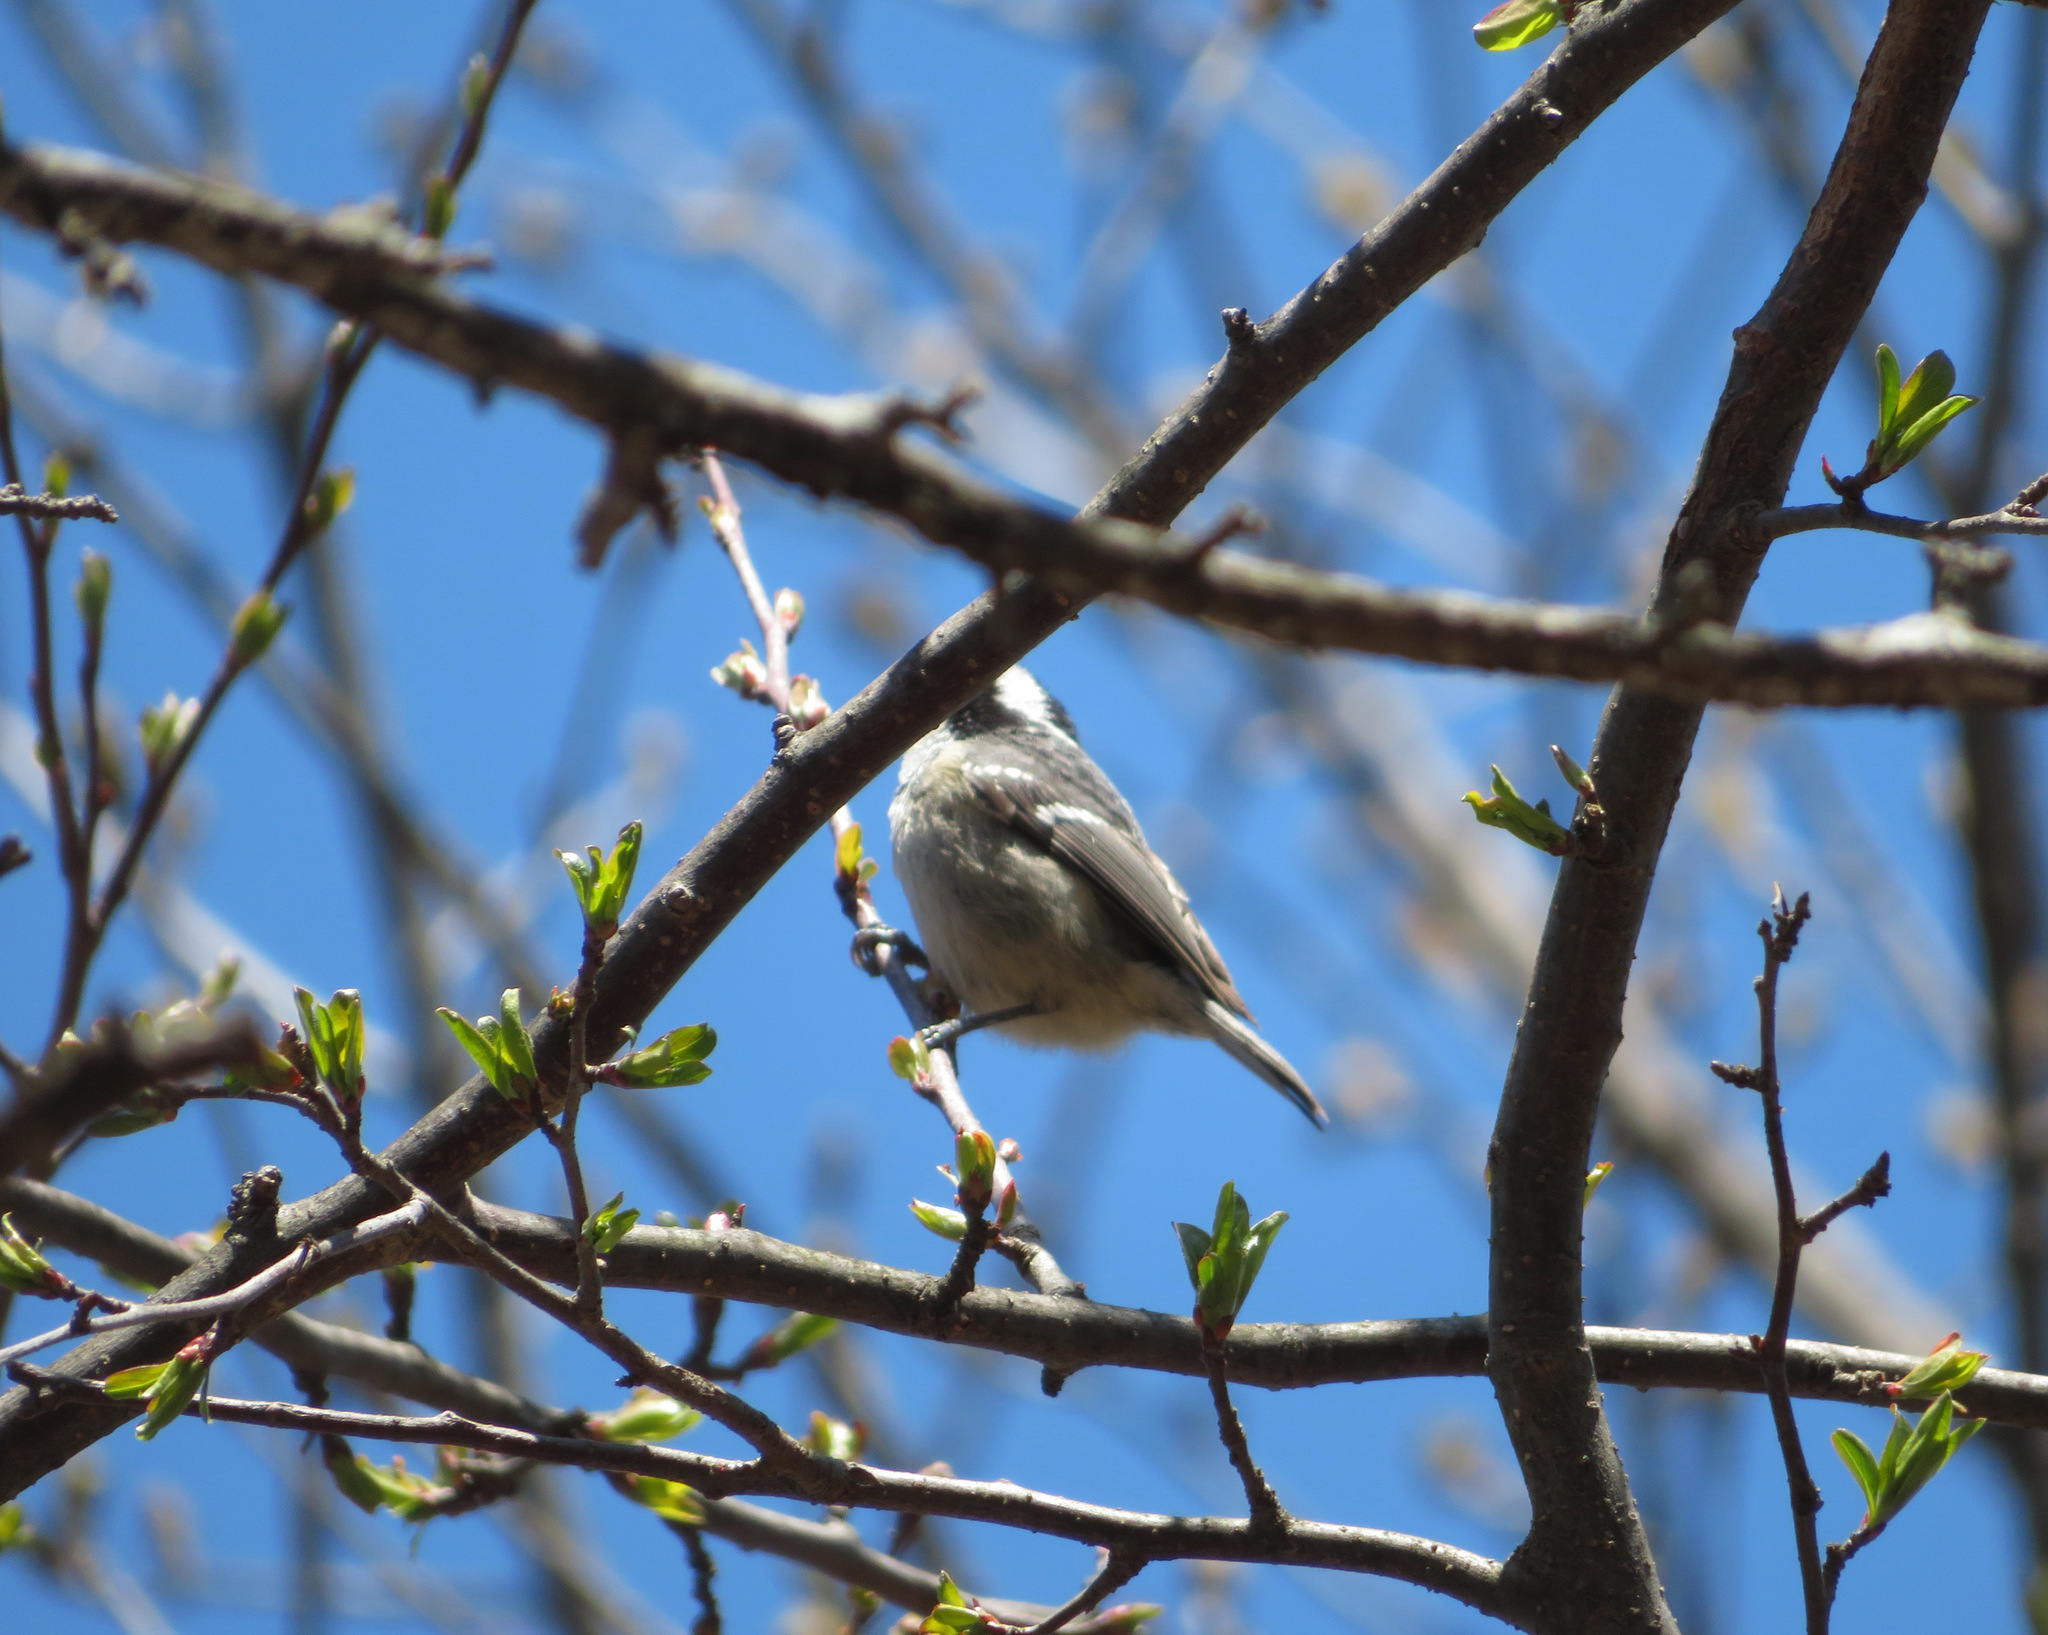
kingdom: Animalia
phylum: Chordata
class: Aves
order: Passeriformes
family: Paridae
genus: Periparus
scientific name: Periparus ater
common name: Coal tit
